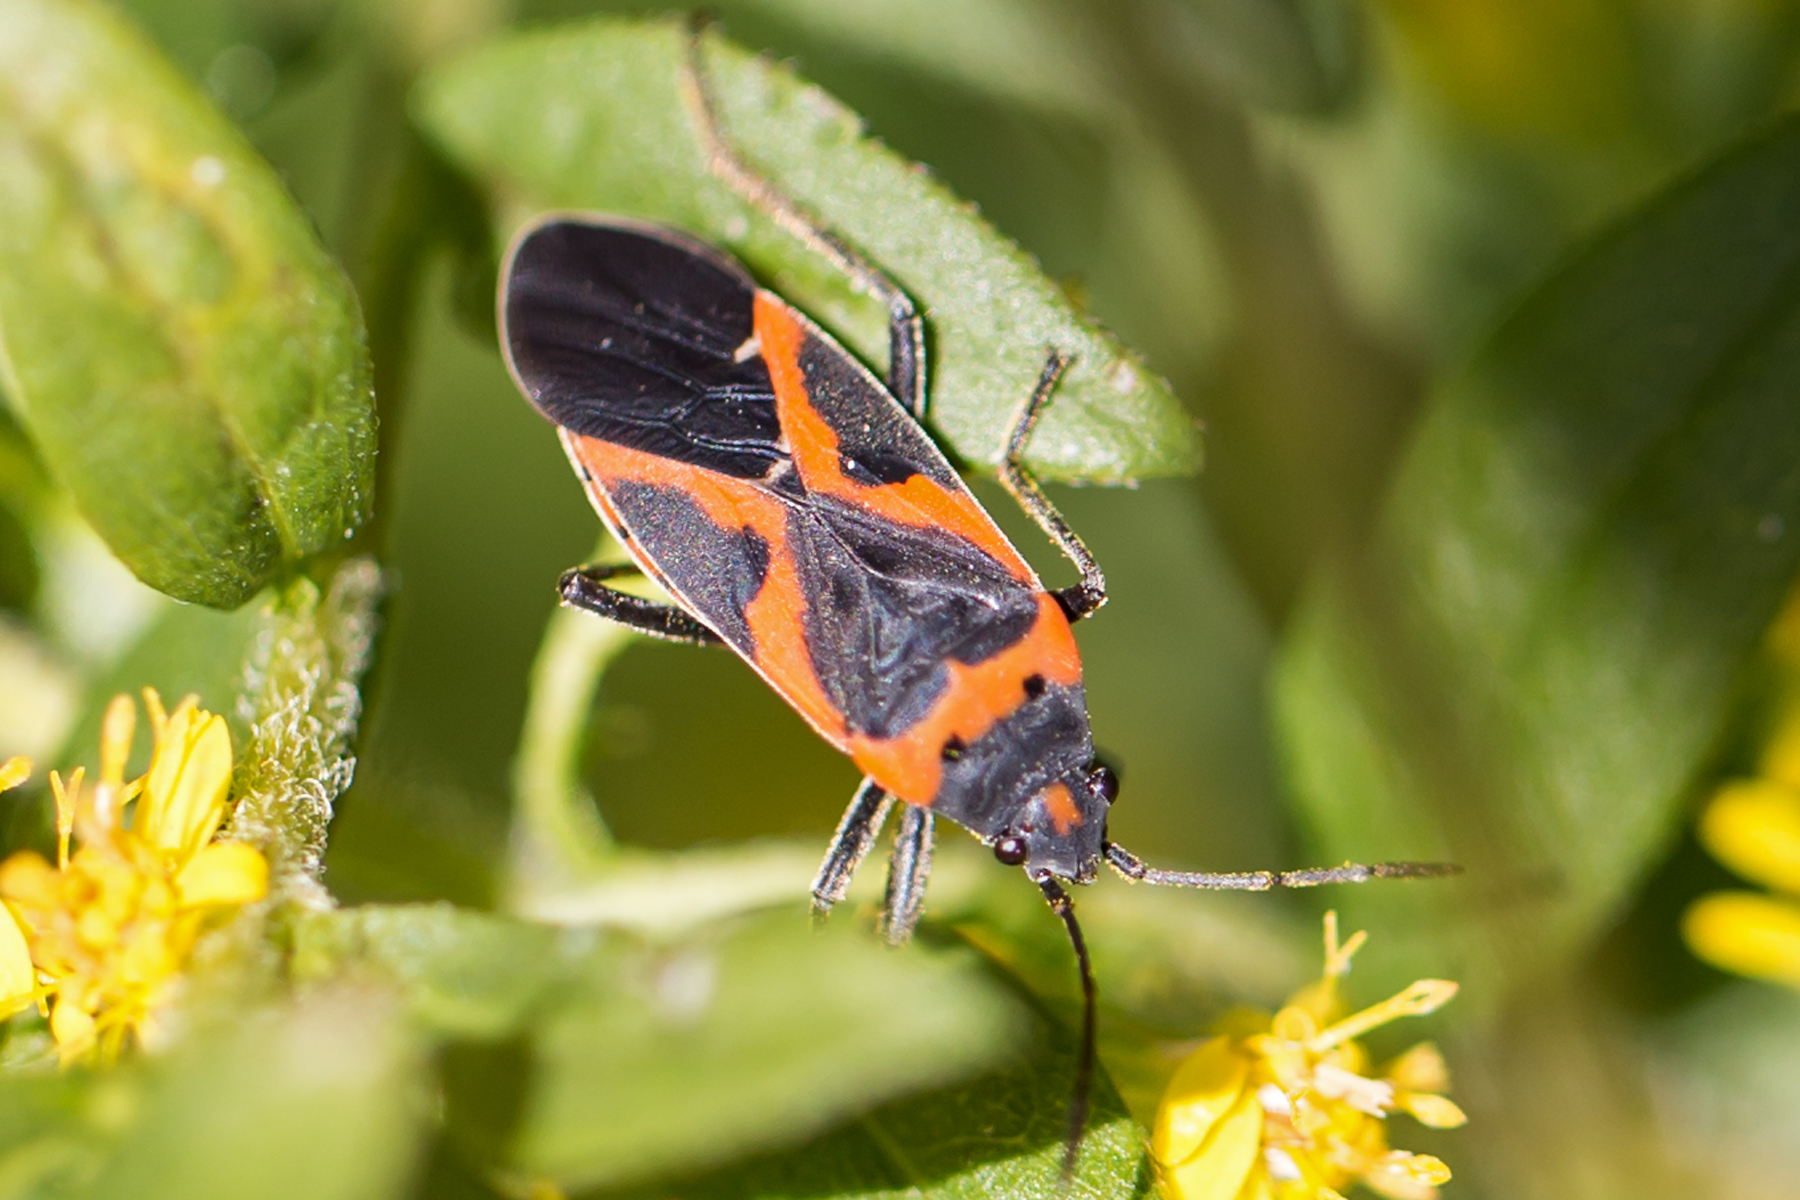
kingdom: Animalia
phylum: Arthropoda
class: Insecta
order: Hemiptera
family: Lygaeidae
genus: Lygaeus
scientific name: Lygaeus kalmii
